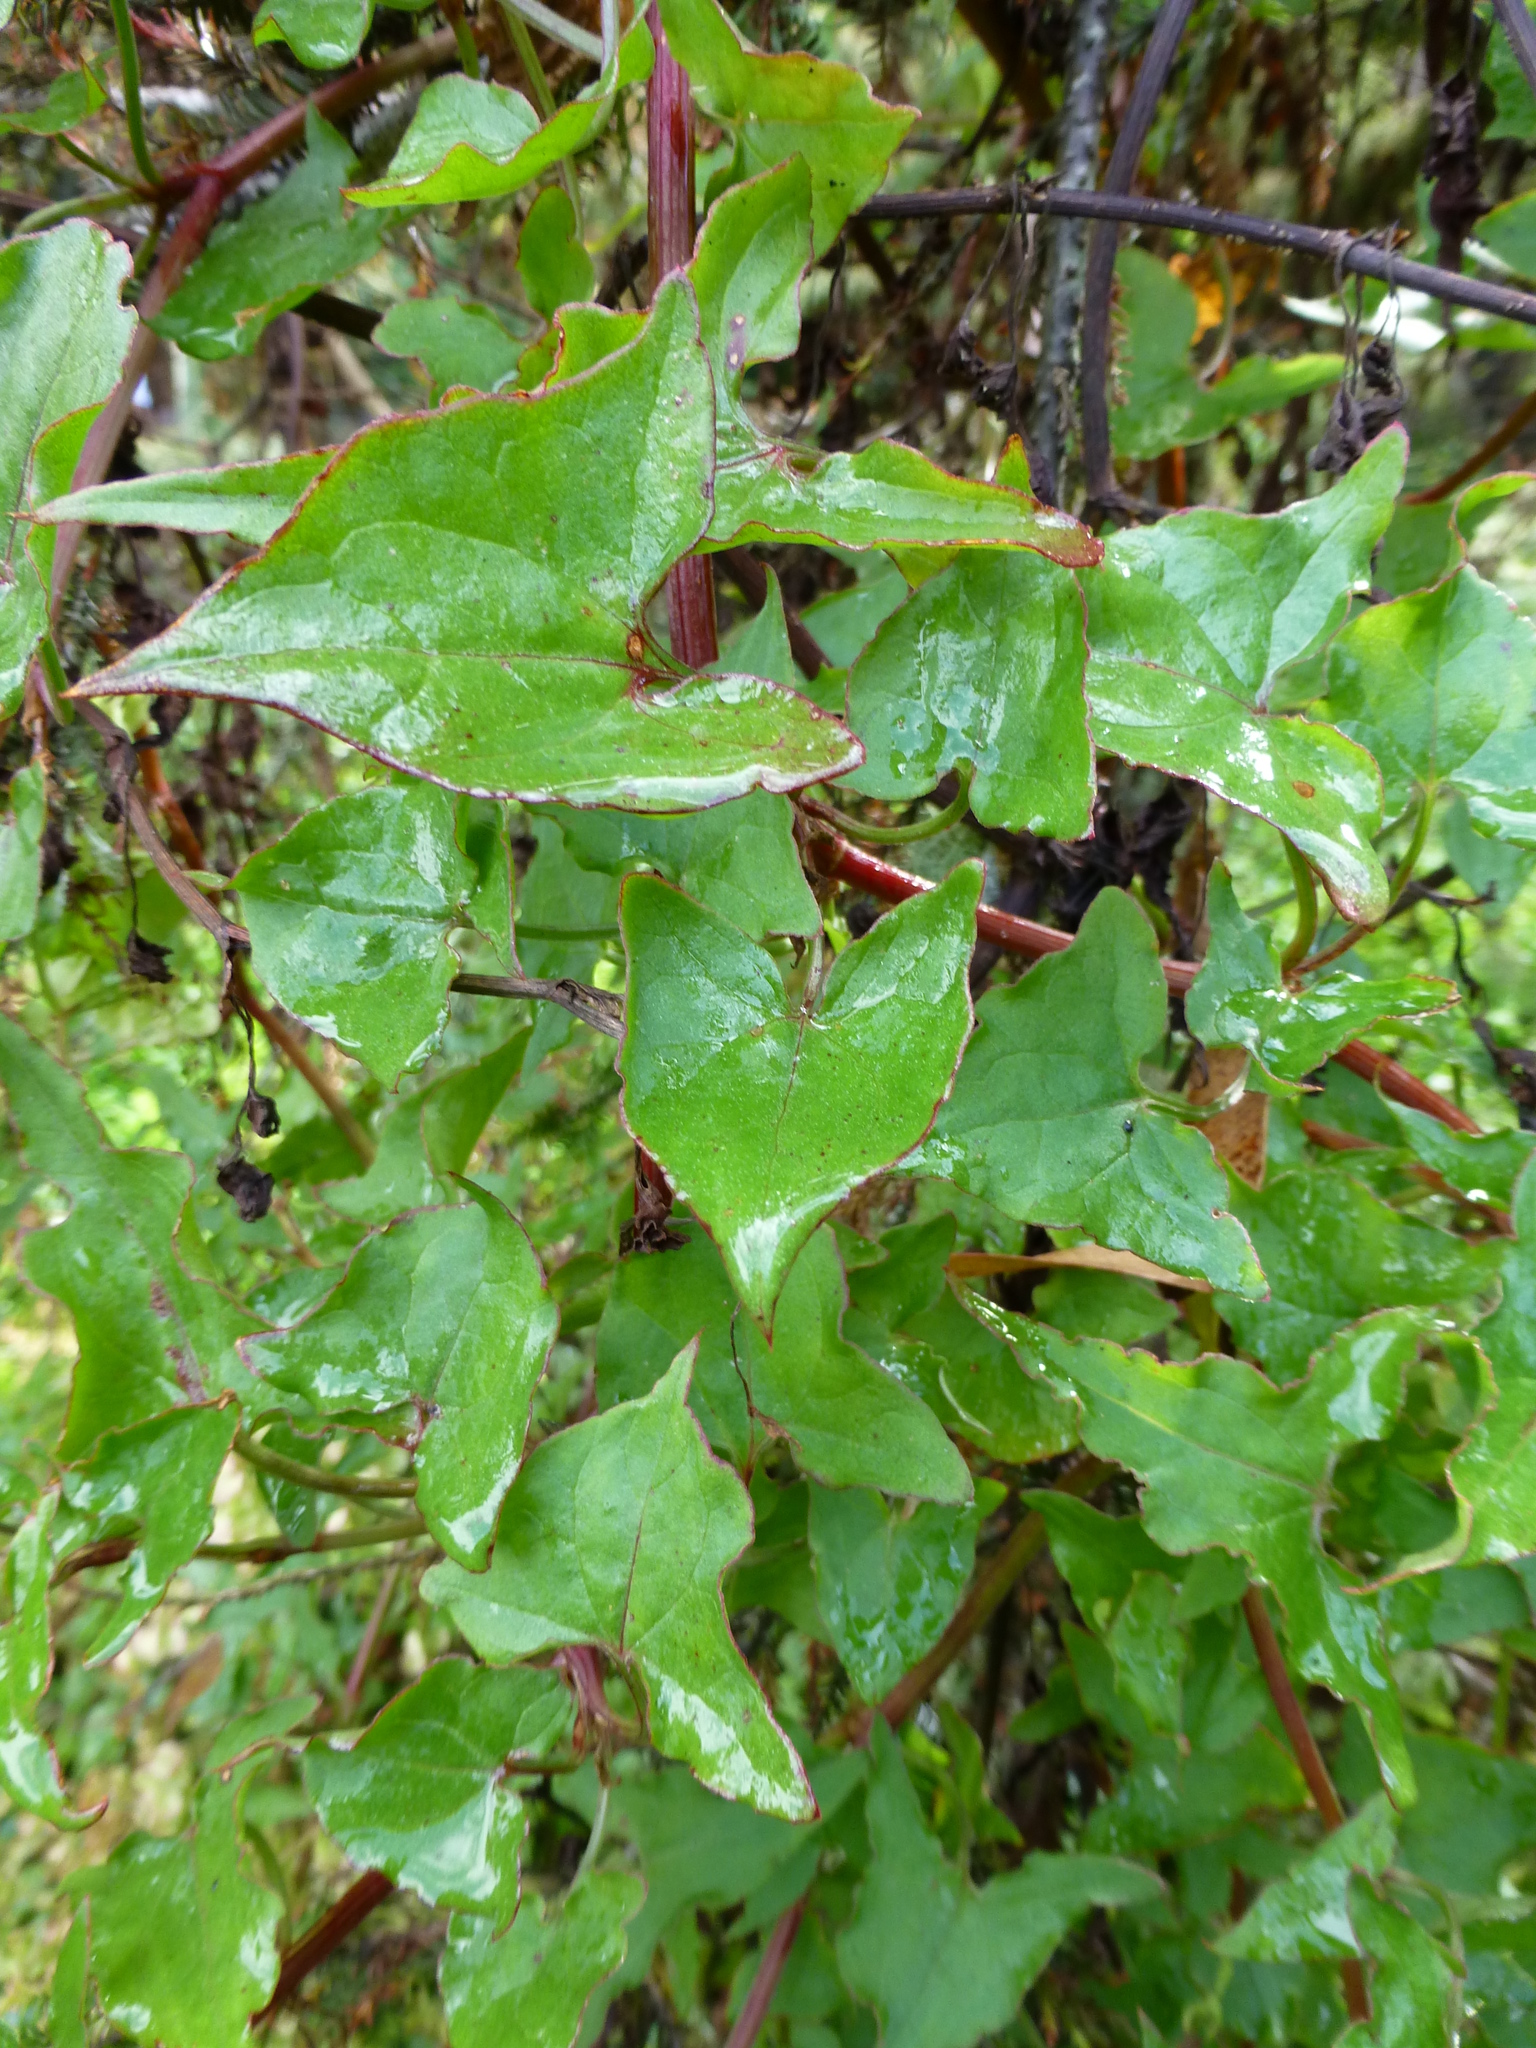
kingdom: Plantae
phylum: Tracheophyta
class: Magnoliopsida
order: Caryophyllales
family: Polygonaceae
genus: Rumex
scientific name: Rumex sagittatus
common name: Climbing dock
